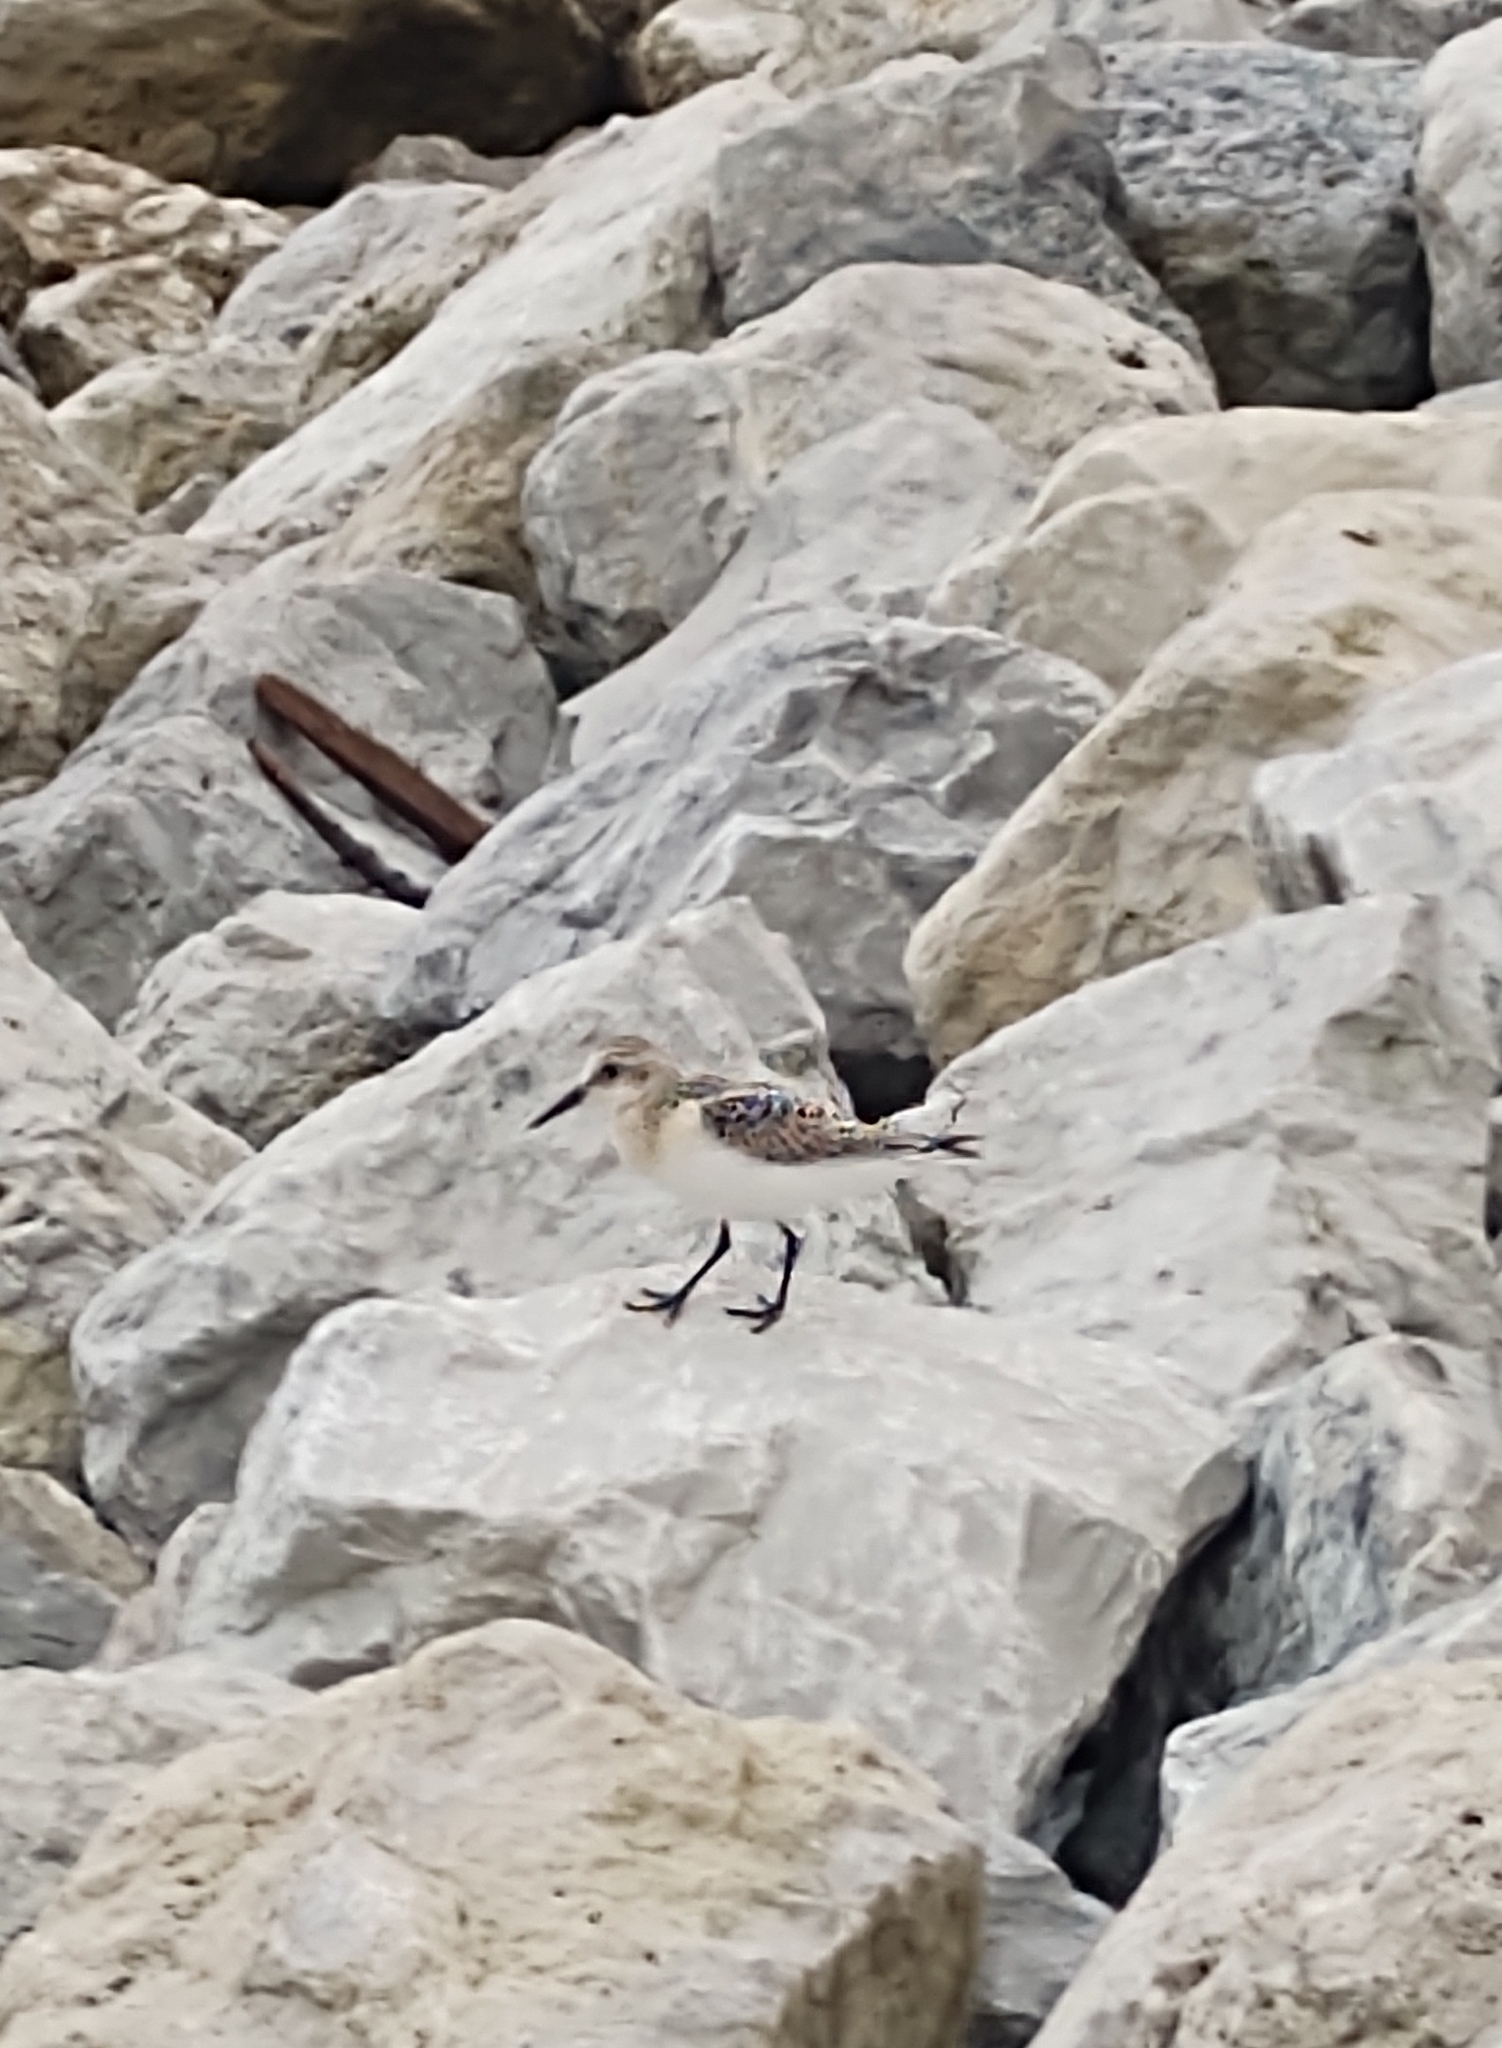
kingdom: Animalia
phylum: Chordata
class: Aves
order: Charadriiformes
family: Scolopacidae
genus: Calidris
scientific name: Calidris alba
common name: Sanderling
